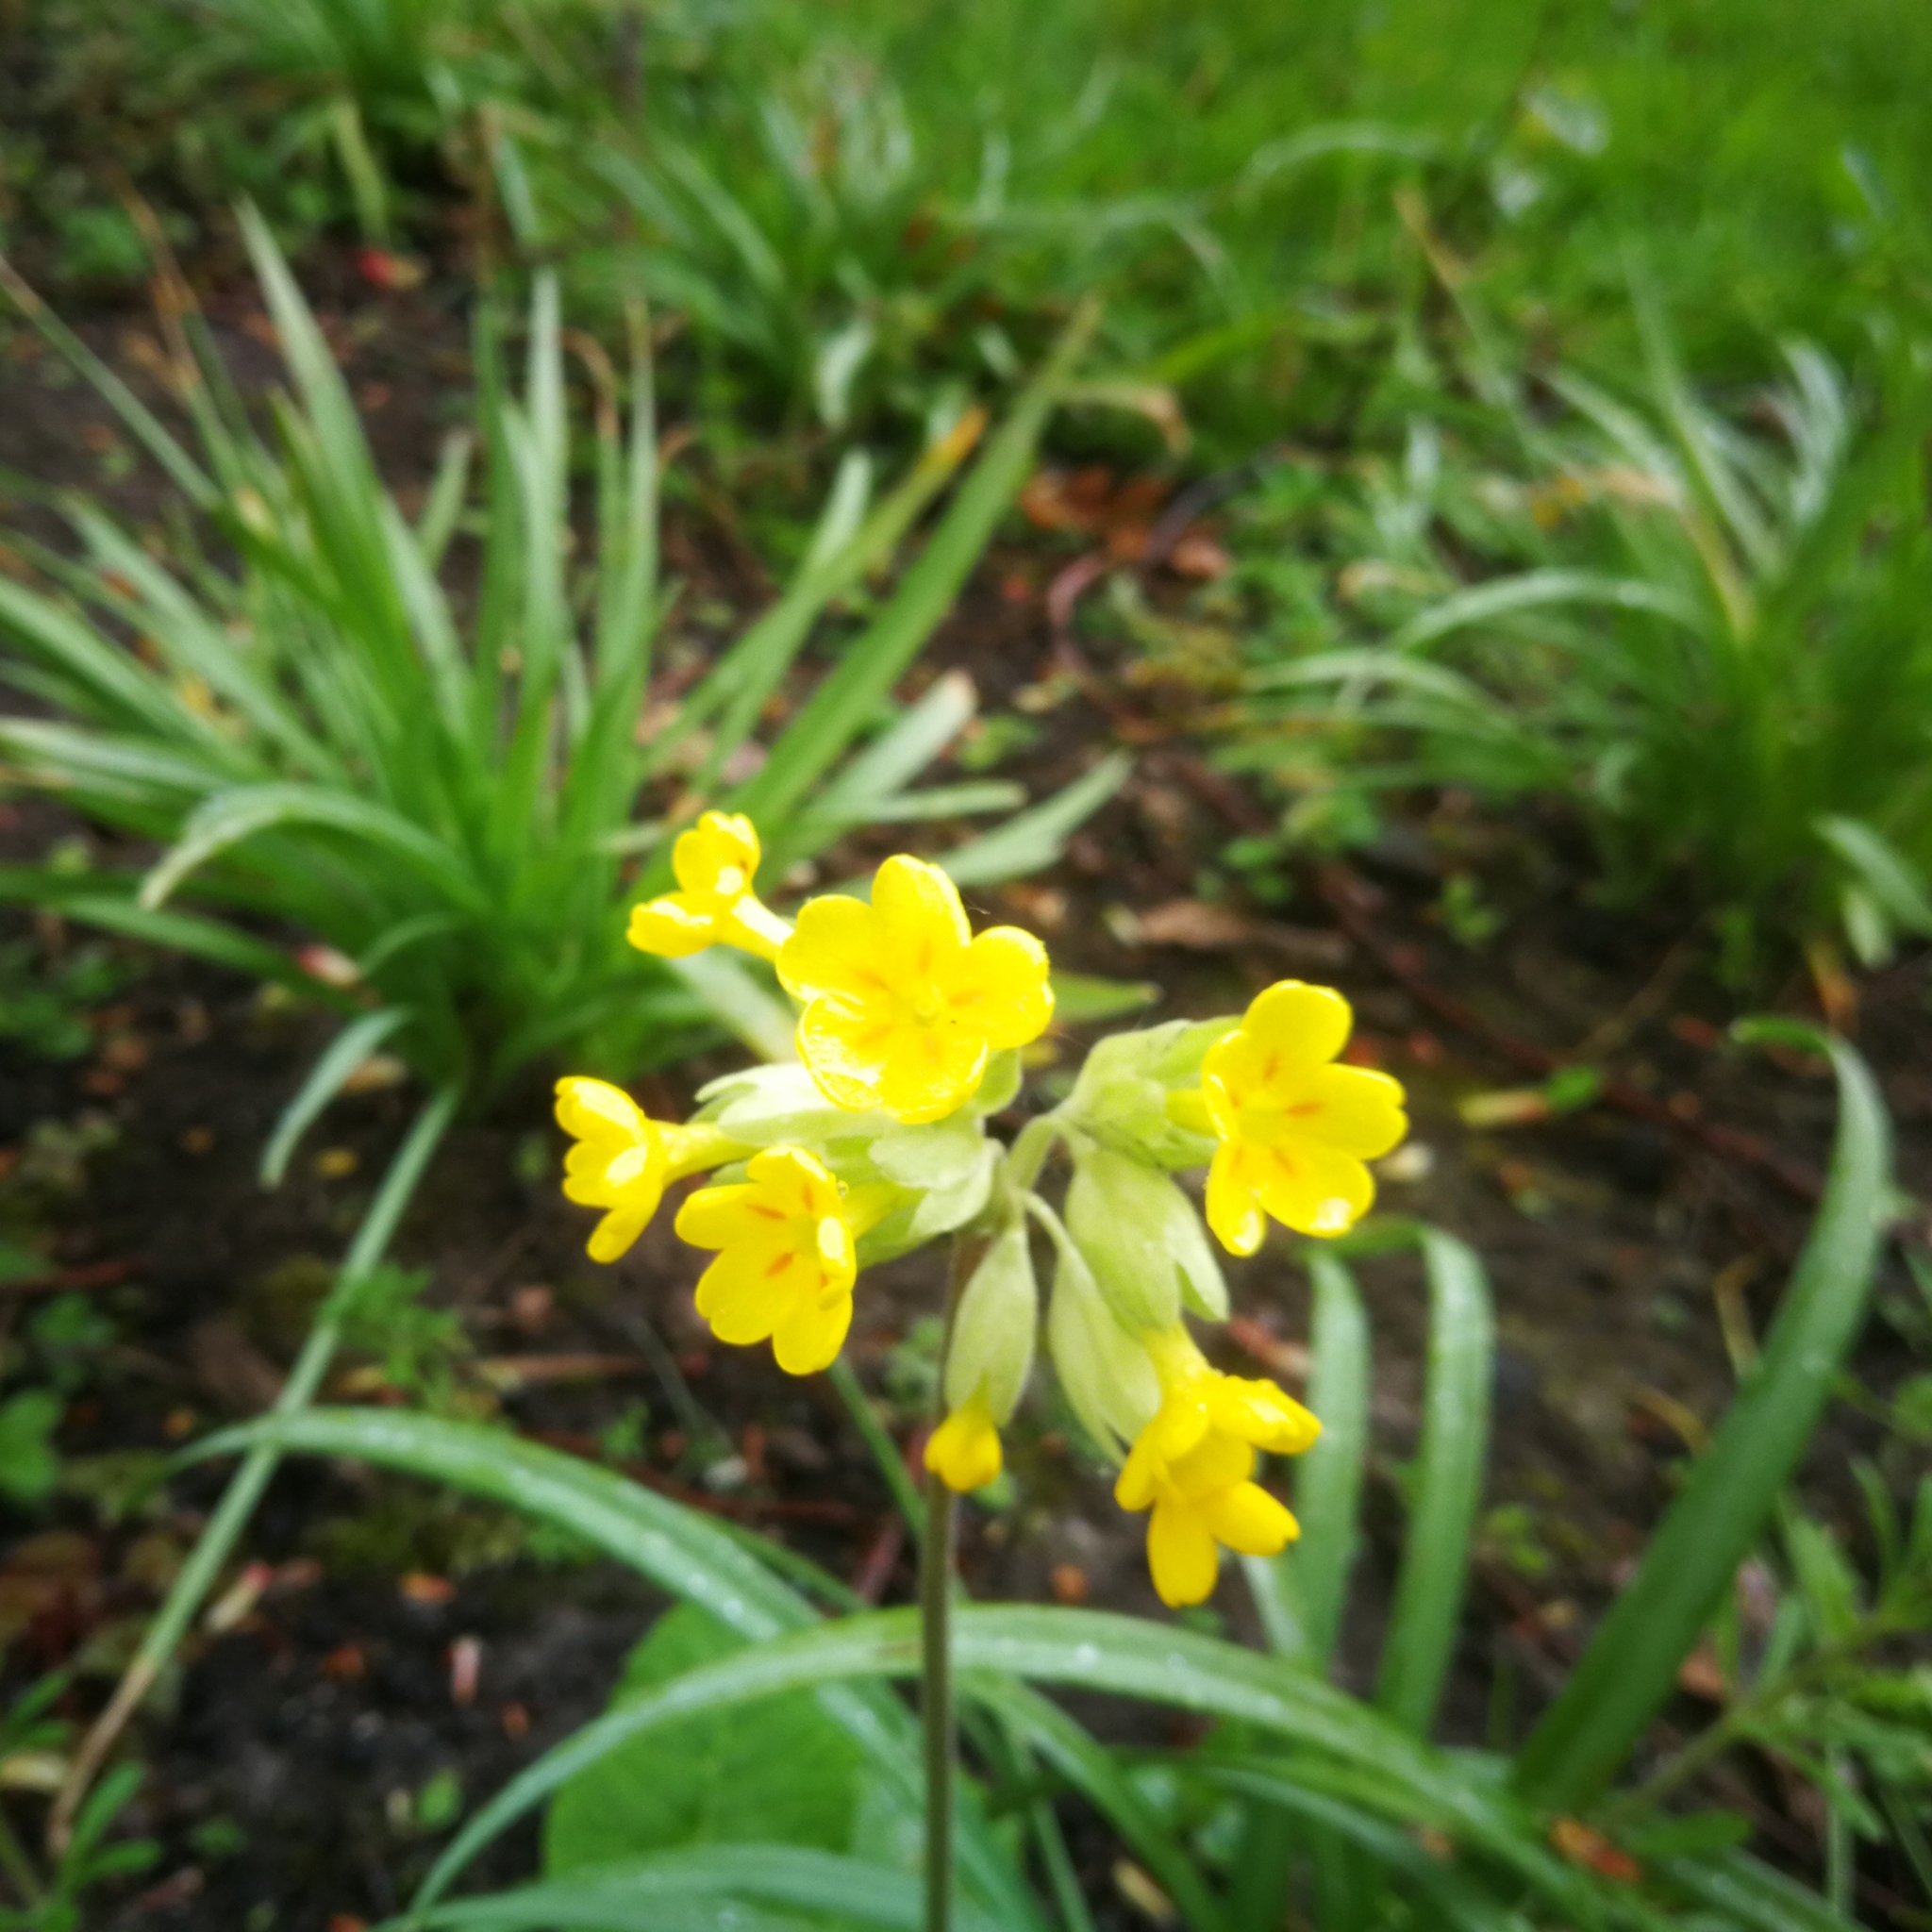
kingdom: Plantae
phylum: Tracheophyta
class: Magnoliopsida
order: Ericales
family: Primulaceae
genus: Primula
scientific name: Primula veris
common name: Cowslip
